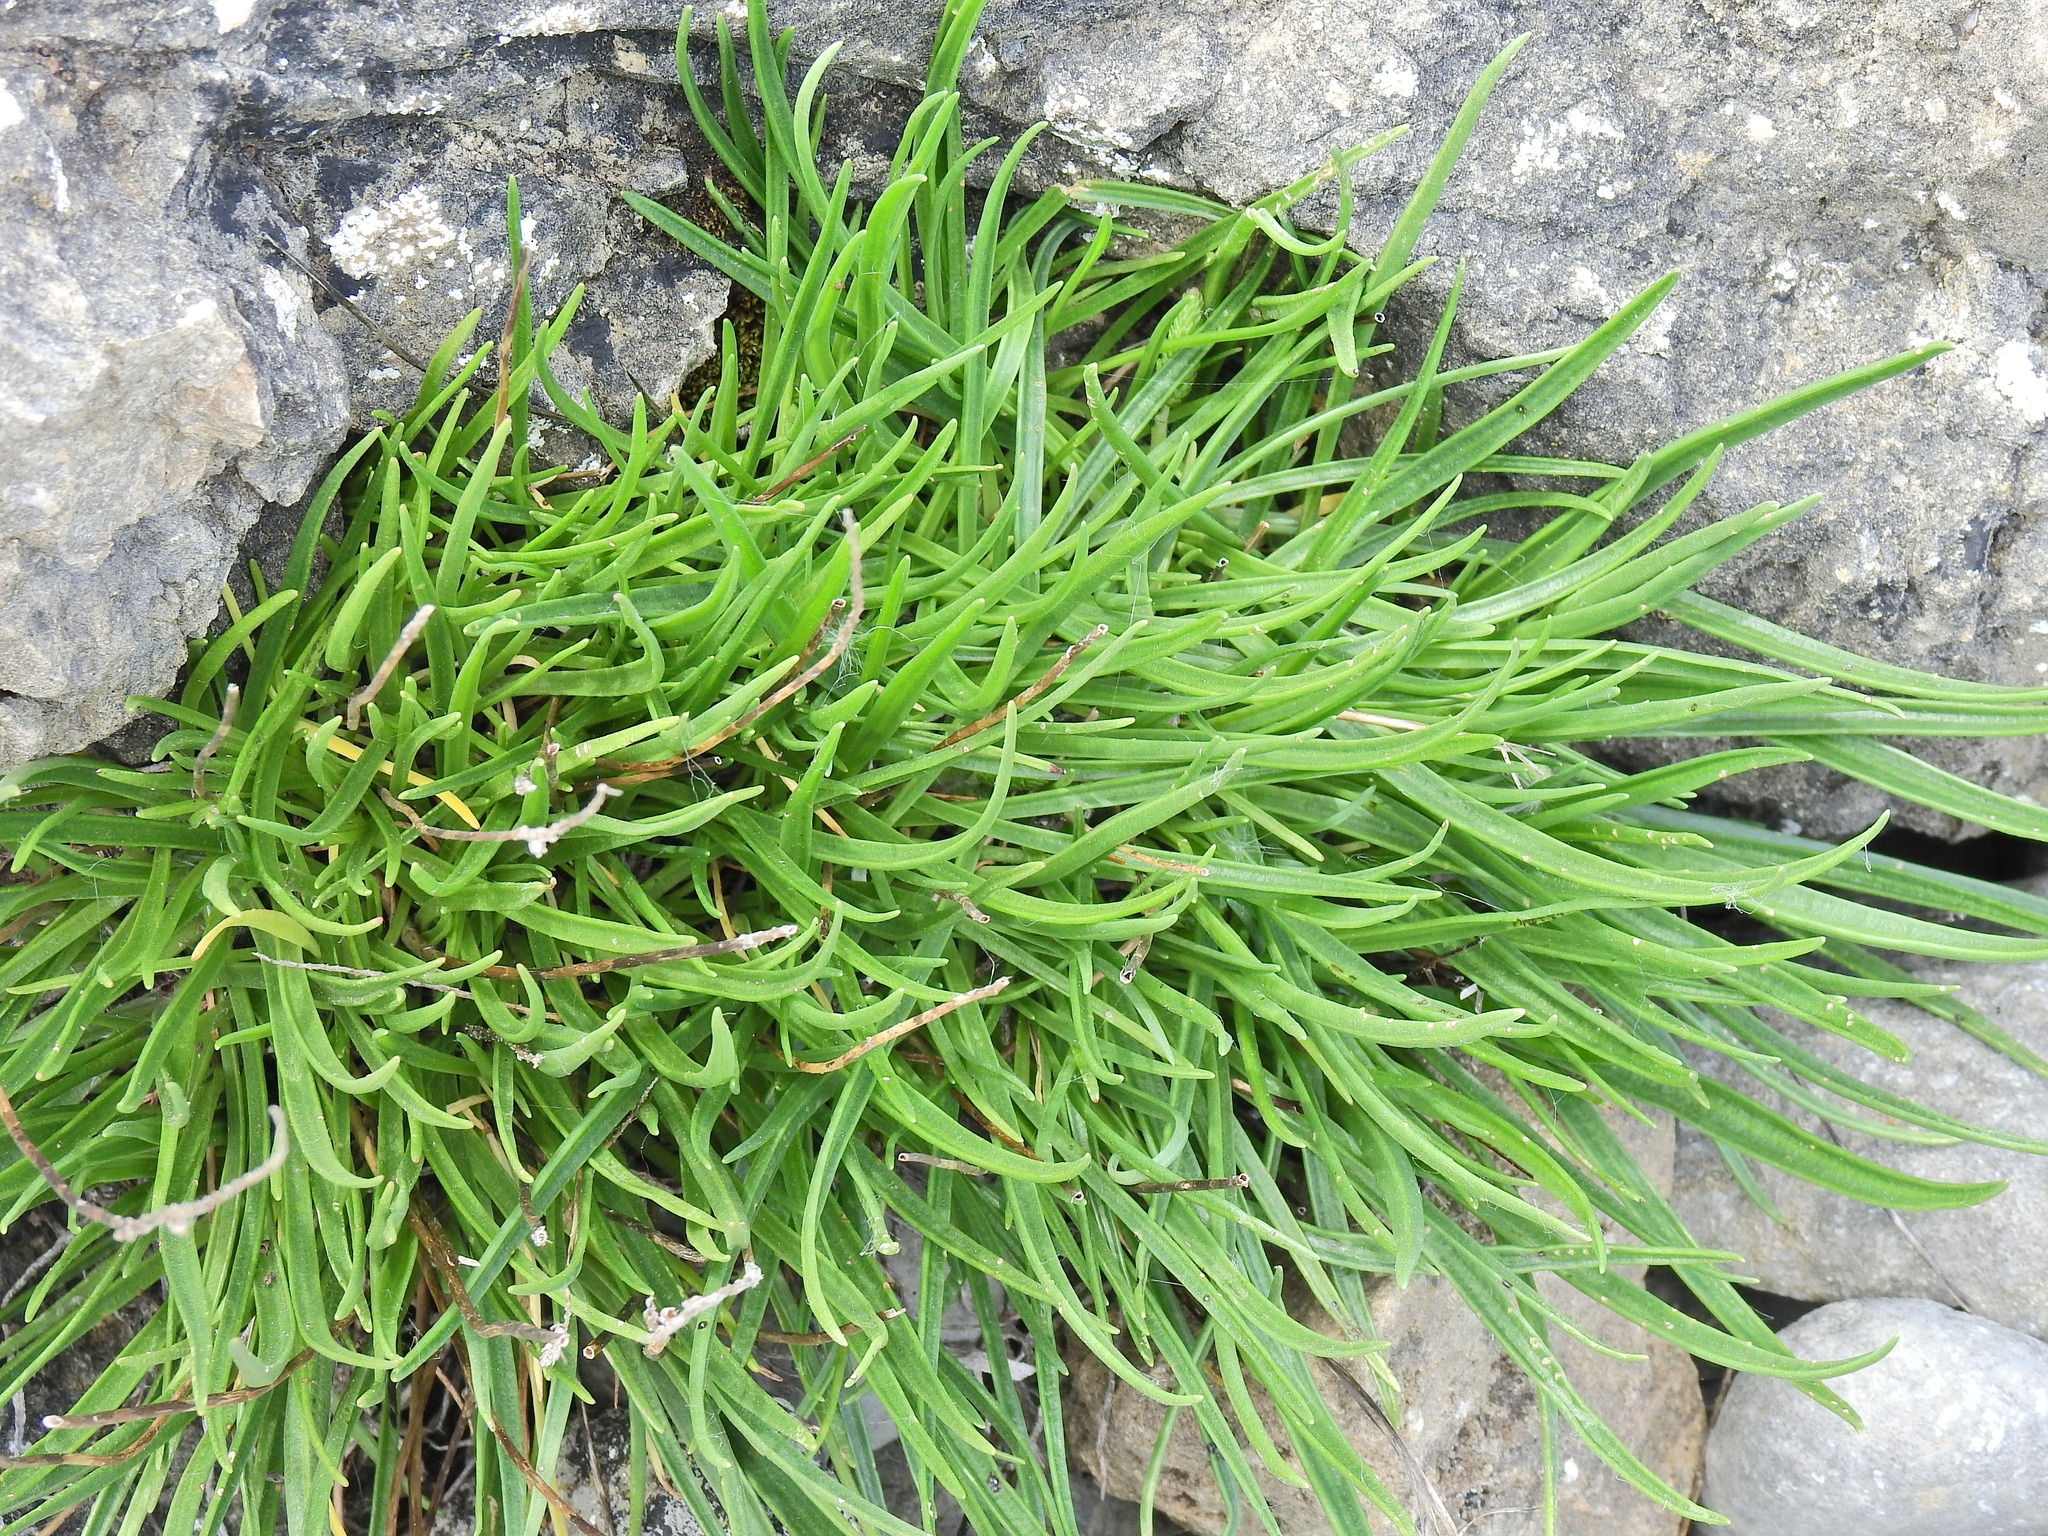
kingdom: Plantae
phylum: Tracheophyta
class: Magnoliopsida
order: Lamiales
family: Plantaginaceae
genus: Plantago
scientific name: Plantago maritima
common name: Sea plantain
